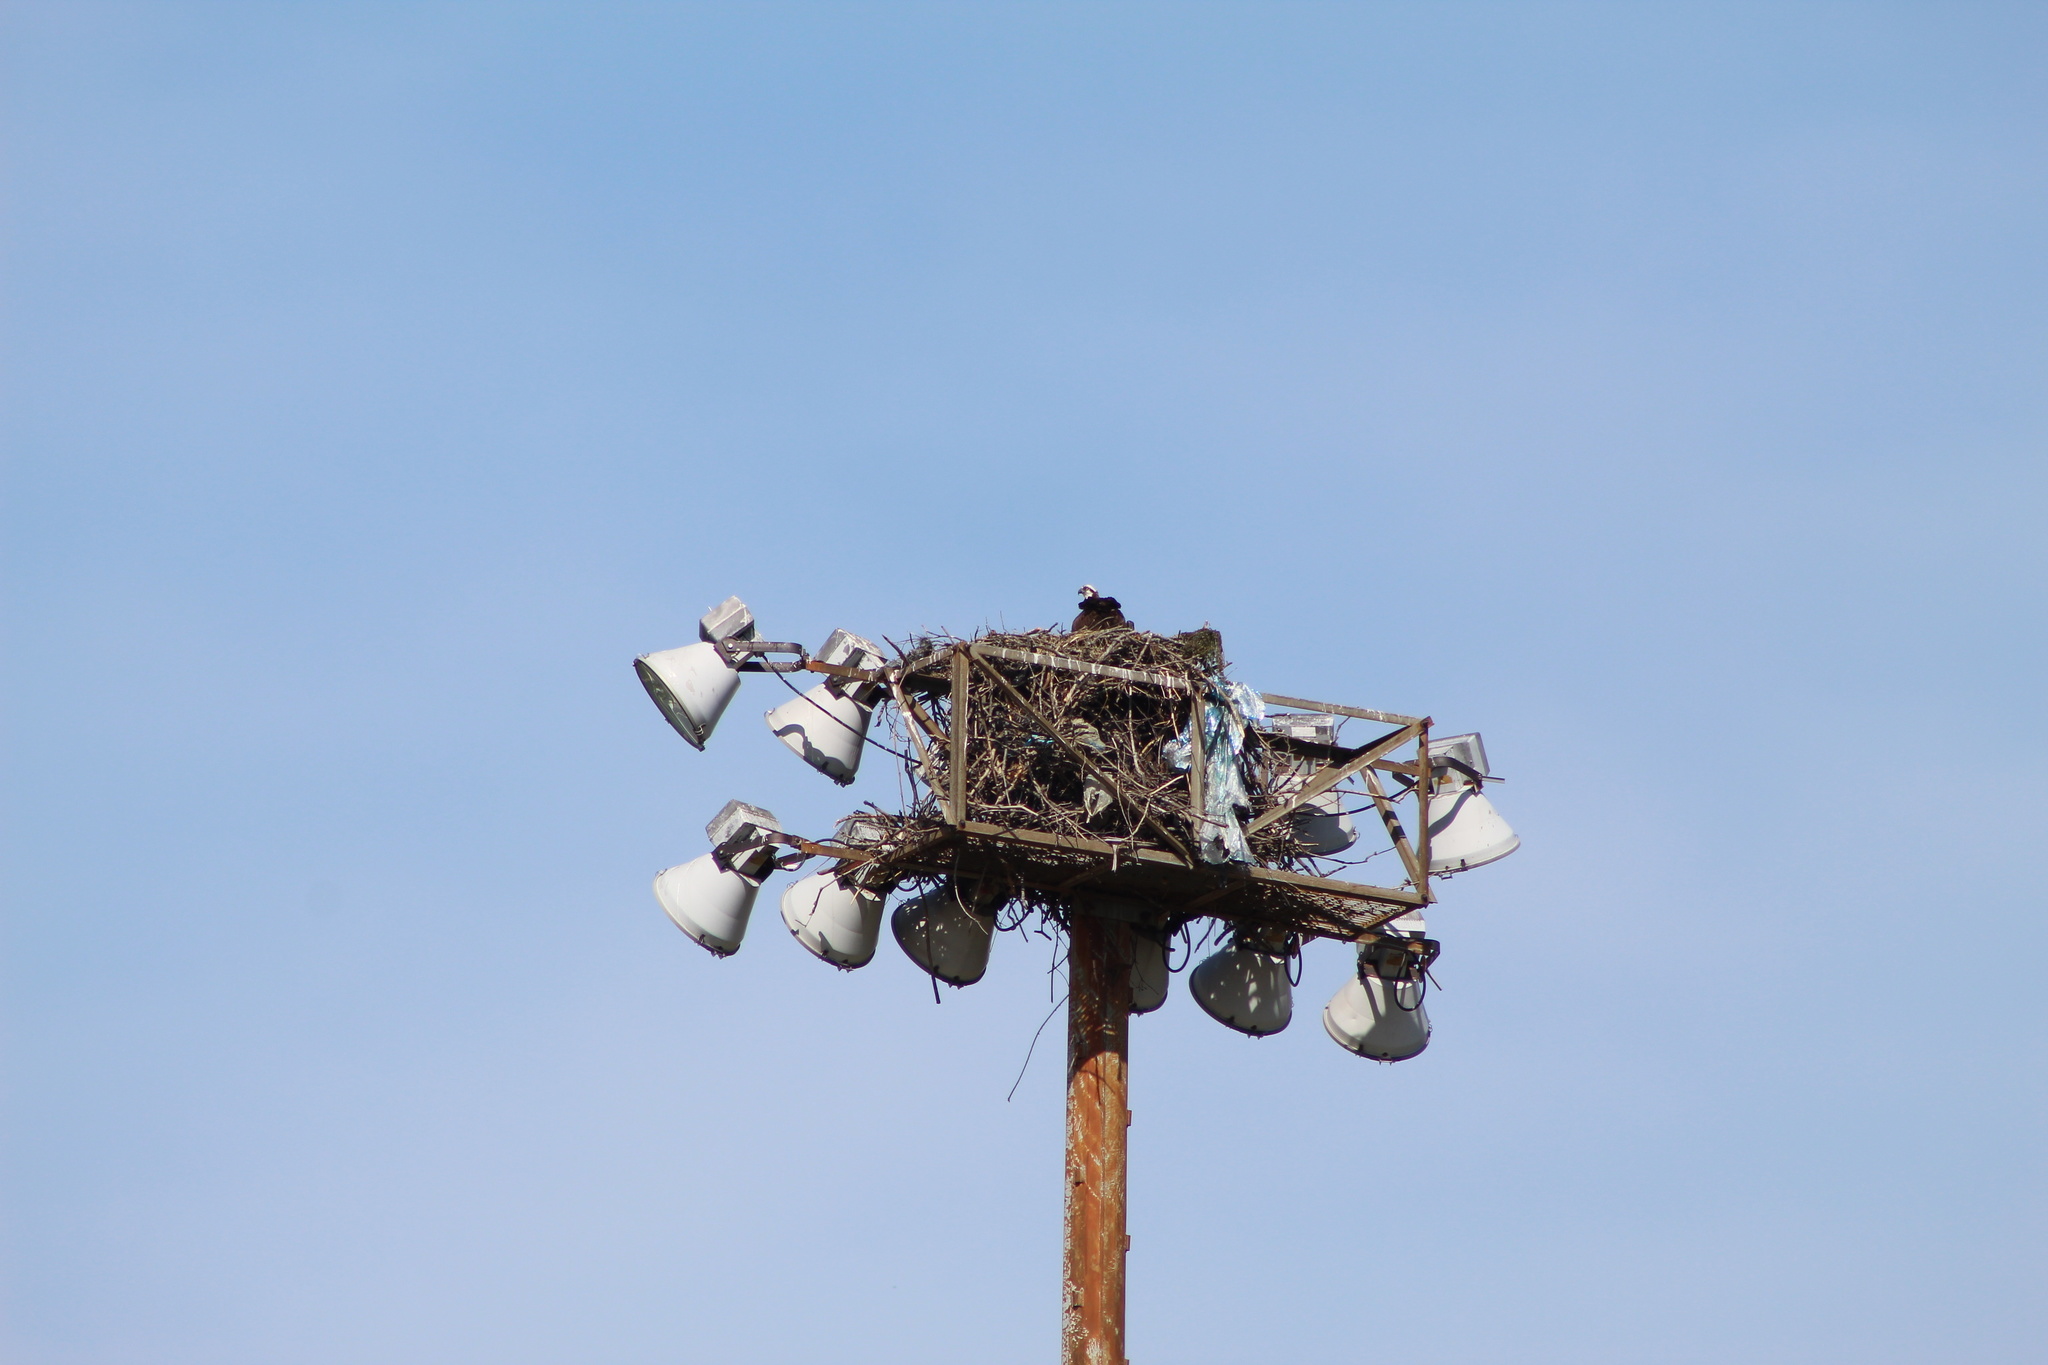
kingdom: Animalia
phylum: Chordata
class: Aves
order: Accipitriformes
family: Pandionidae
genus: Pandion
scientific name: Pandion haliaetus
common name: Osprey
